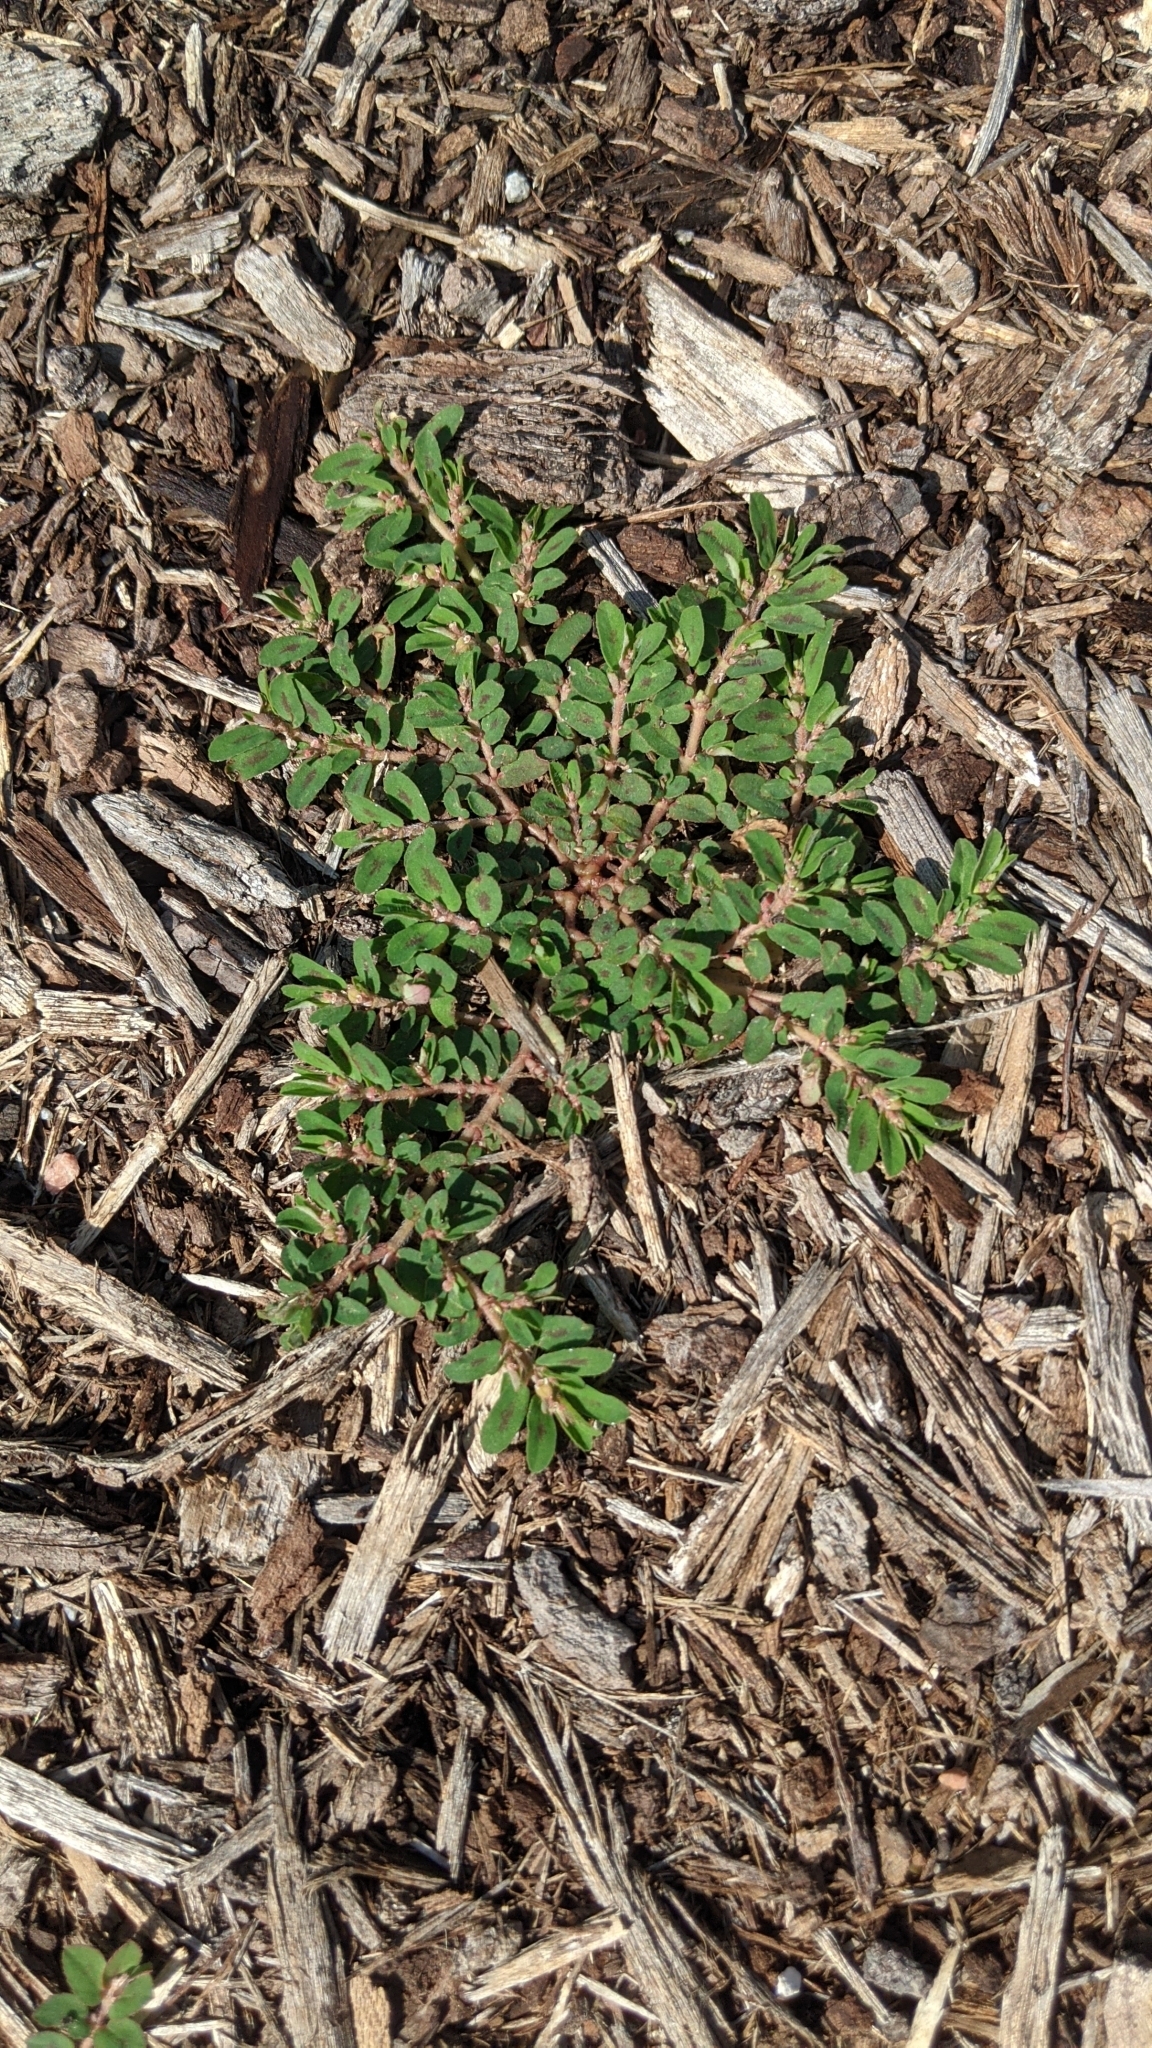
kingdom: Plantae
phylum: Tracheophyta
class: Magnoliopsida
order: Malpighiales
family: Euphorbiaceae
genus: Euphorbia
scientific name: Euphorbia maculata
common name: Spotted spurge
